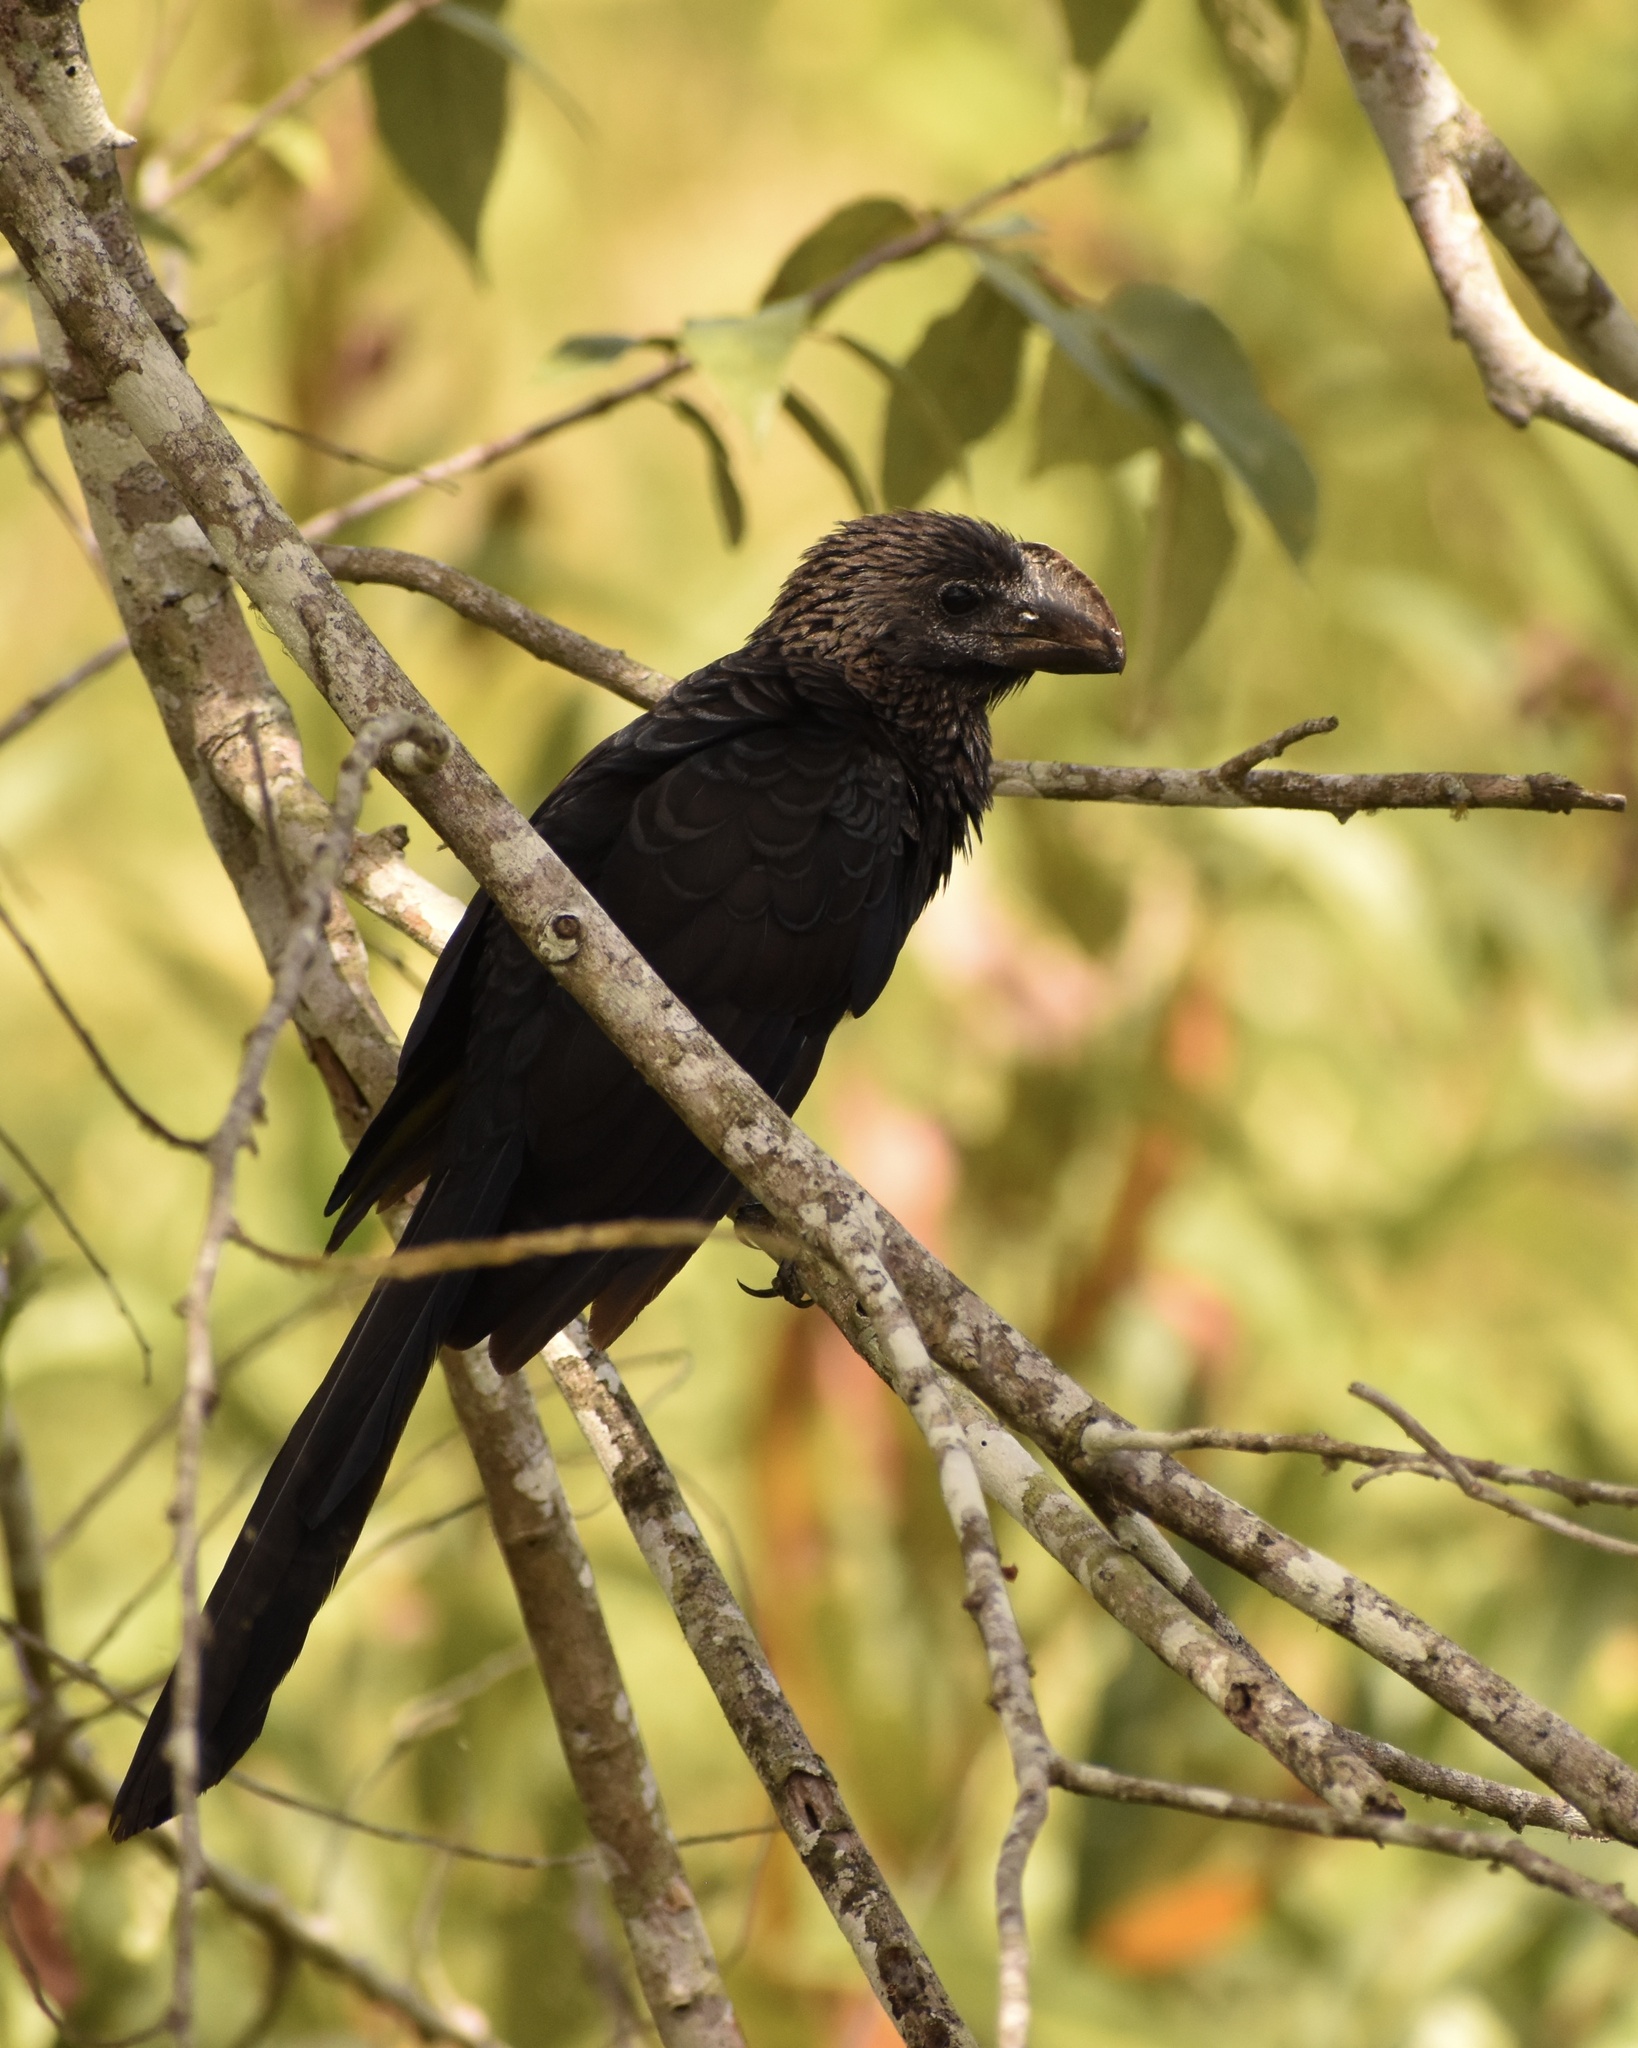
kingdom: Animalia
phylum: Chordata
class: Aves
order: Cuculiformes
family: Cuculidae
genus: Crotophaga
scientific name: Crotophaga ani
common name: Smooth-billed ani
